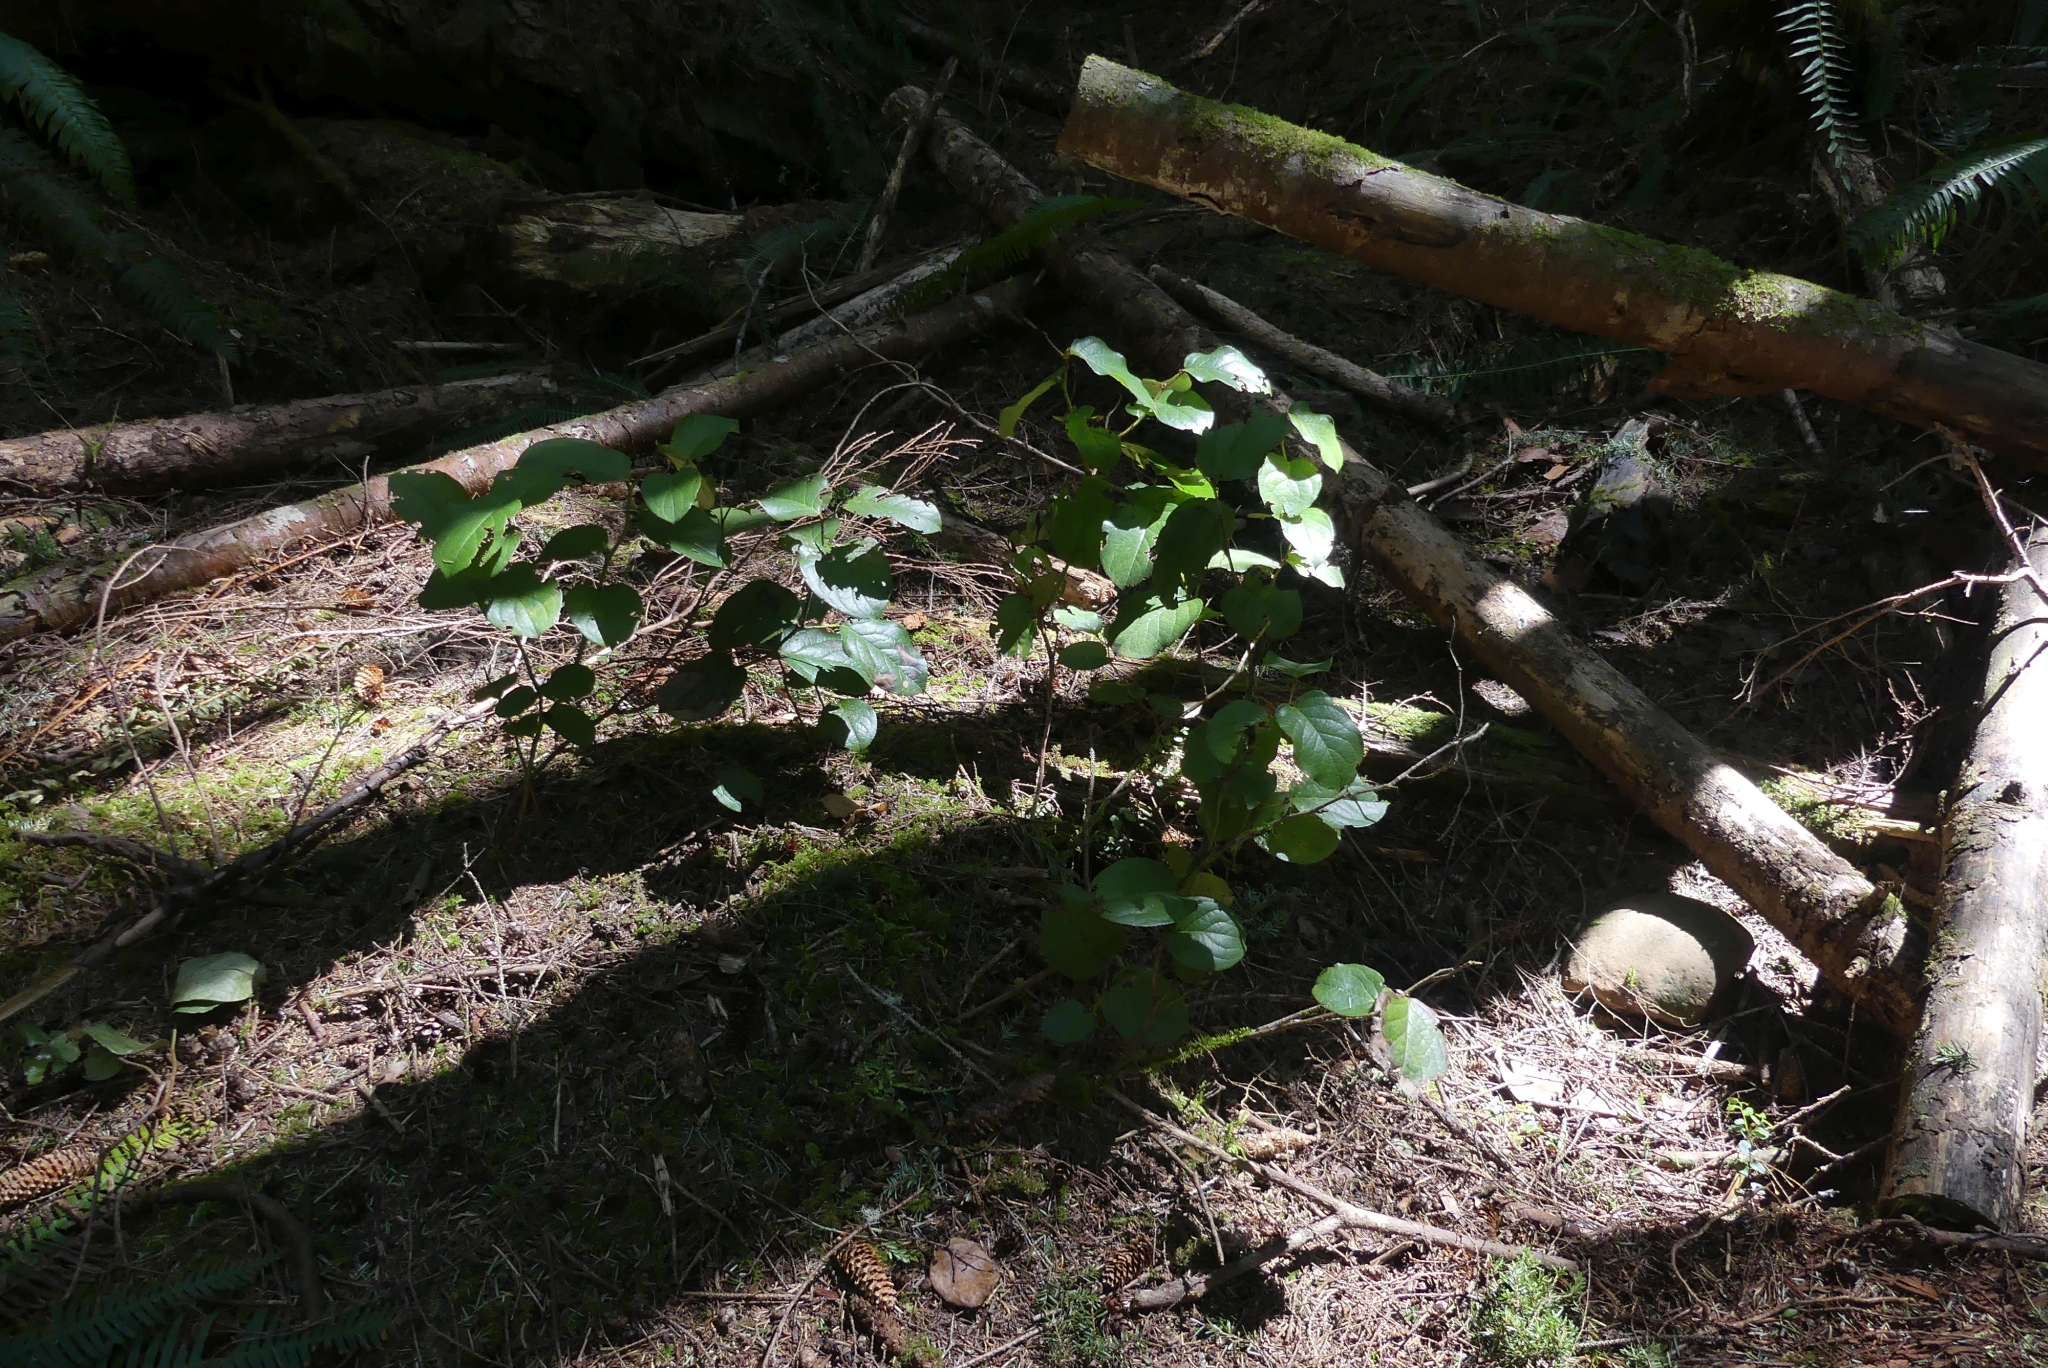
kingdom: Plantae
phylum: Tracheophyta
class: Magnoliopsida
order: Ericales
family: Ericaceae
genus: Gaultheria
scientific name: Gaultheria shallon
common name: Shallon
